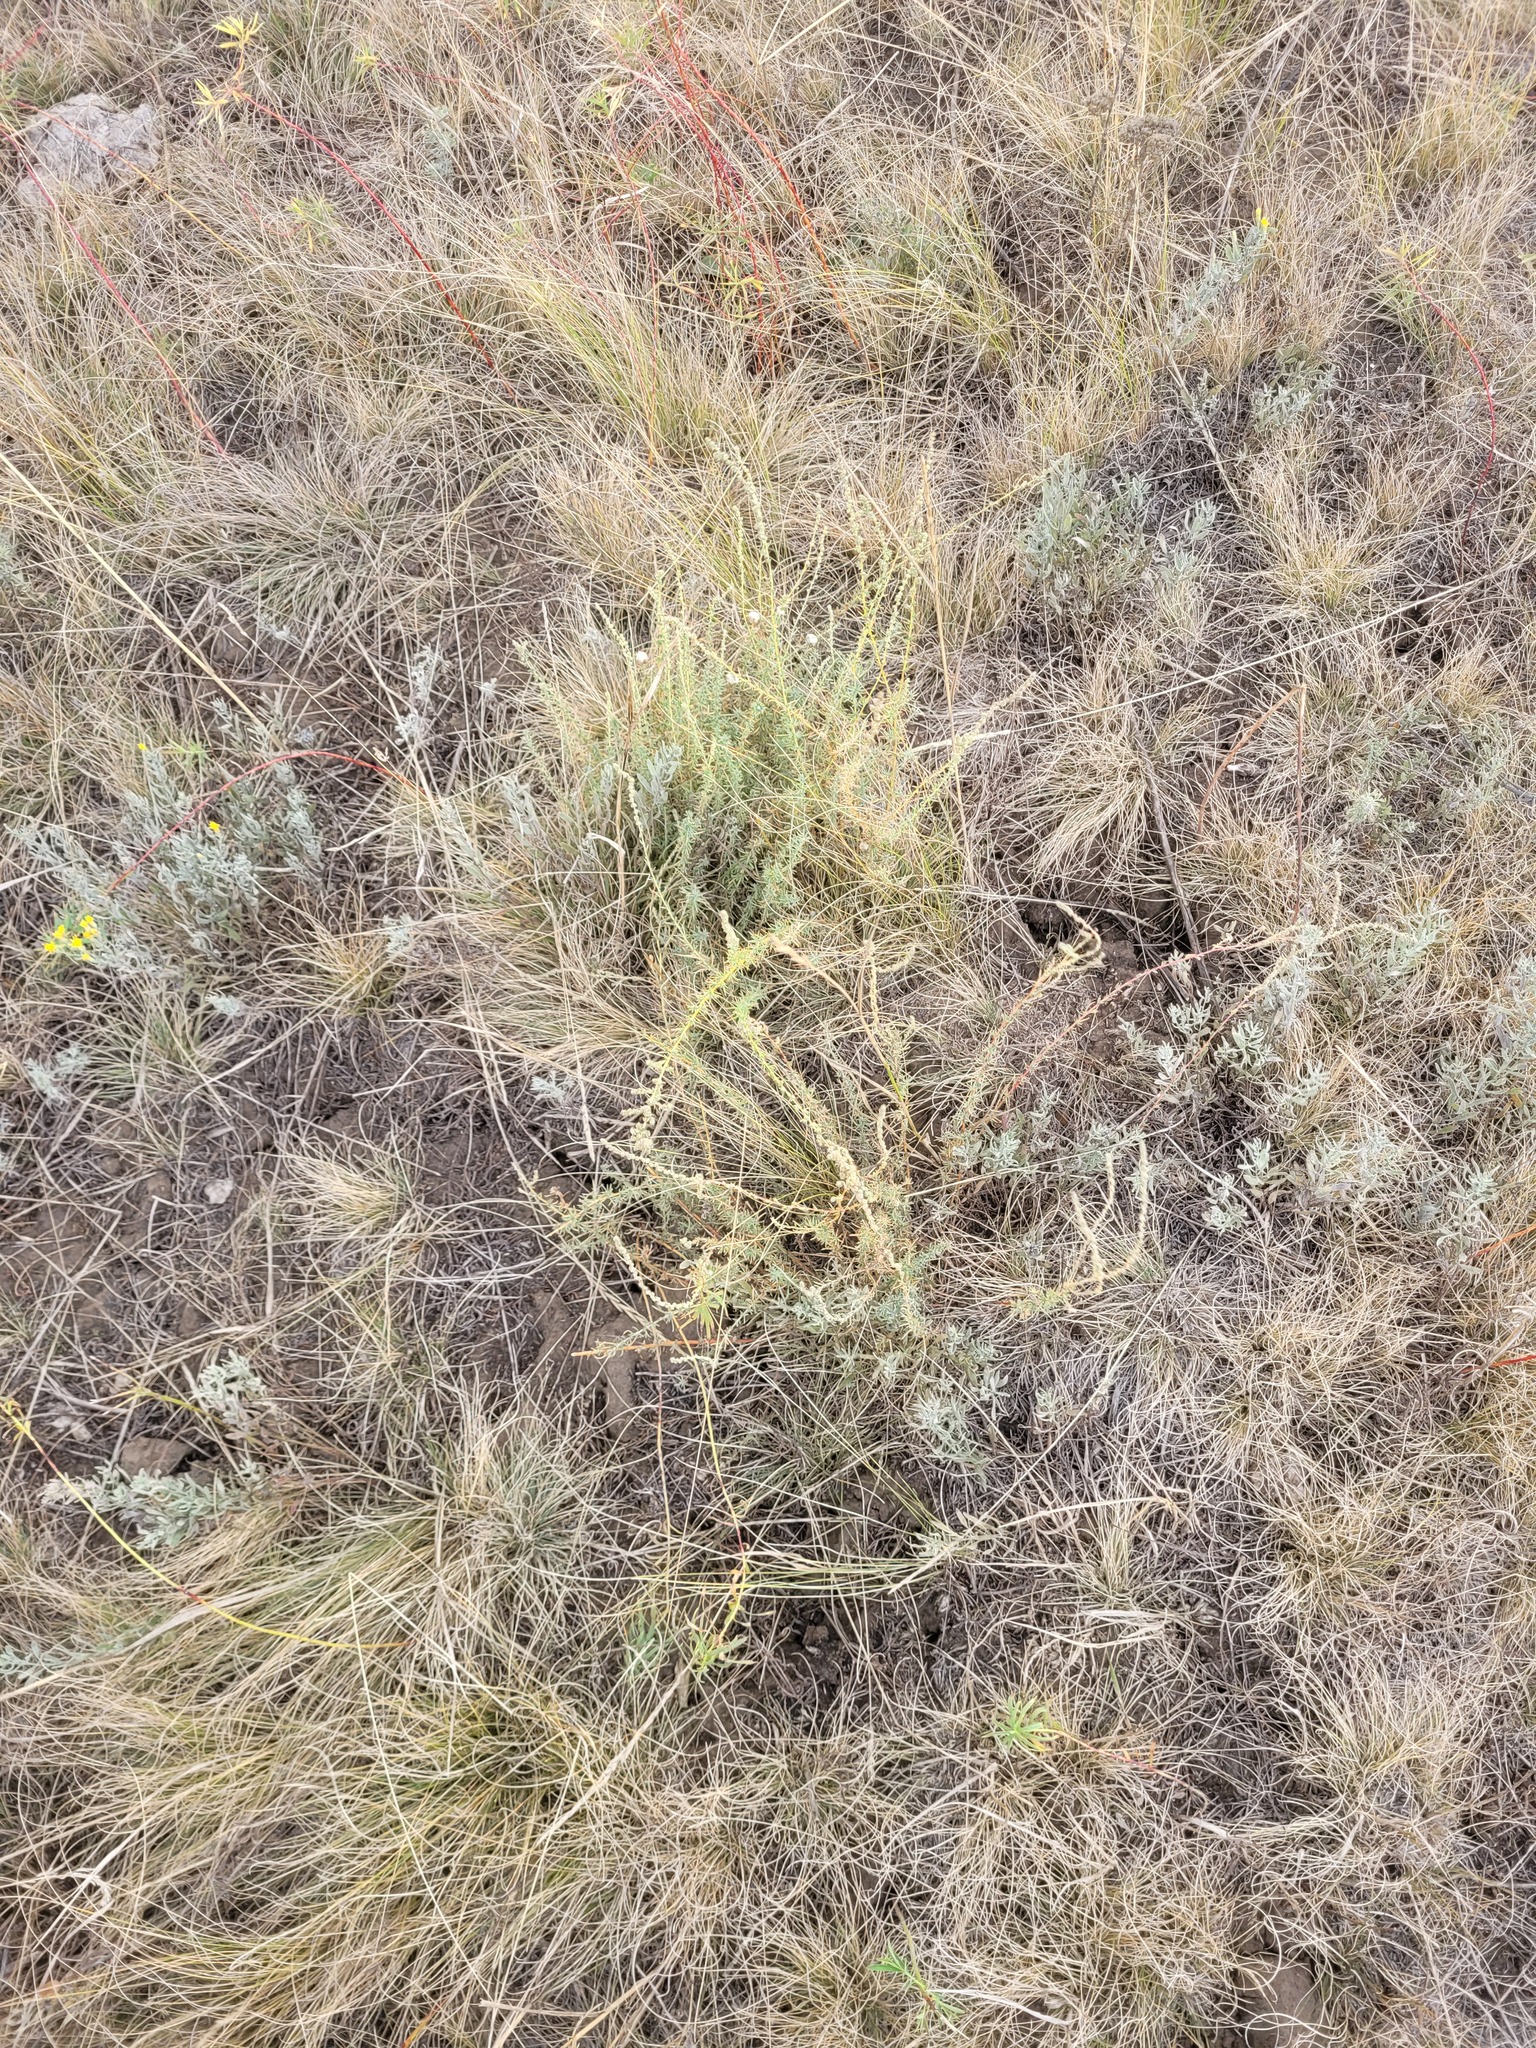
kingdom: Plantae
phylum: Tracheophyta
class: Magnoliopsida
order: Caryophyllales
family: Amaranthaceae
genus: Bassia
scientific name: Bassia prostrata
